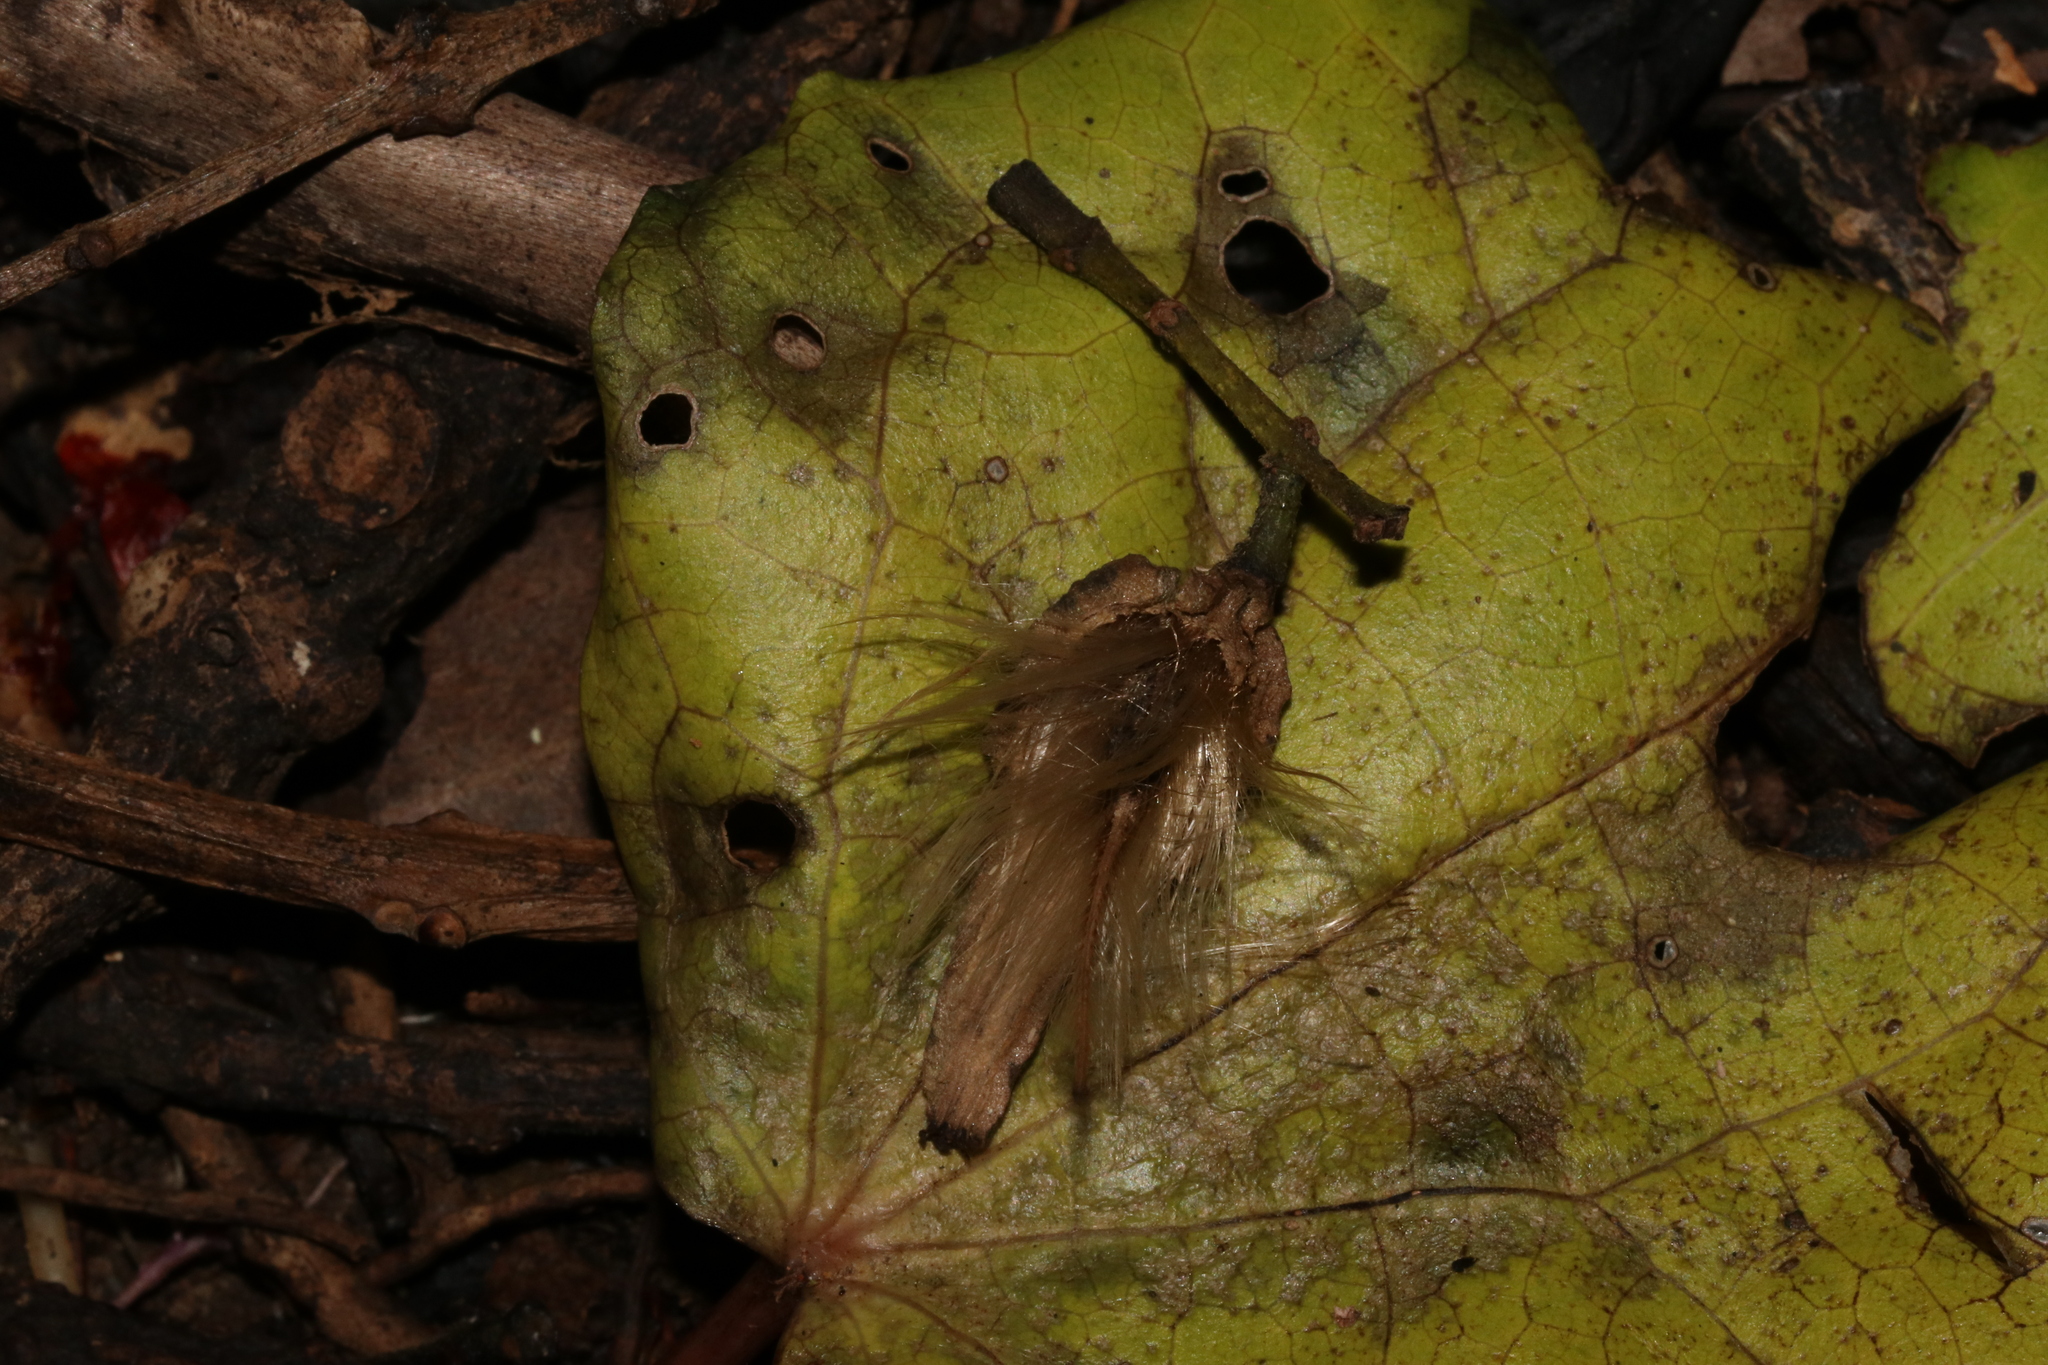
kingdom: Plantae
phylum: Tracheophyta
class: Magnoliopsida
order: Laurales
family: Atherospermataceae
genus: Laurelia
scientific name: Laurelia novae-zelandiae
